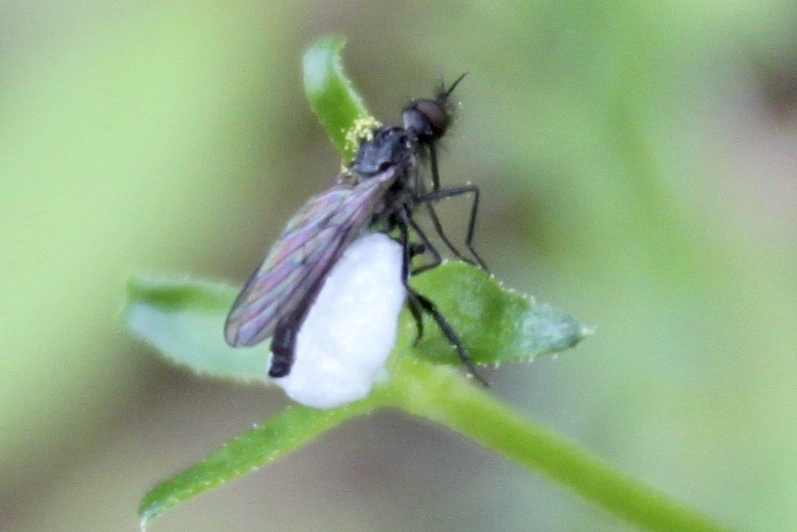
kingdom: Animalia
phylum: Arthropoda
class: Insecta
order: Diptera
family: Empididae
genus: Empis
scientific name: Empis geneatis
